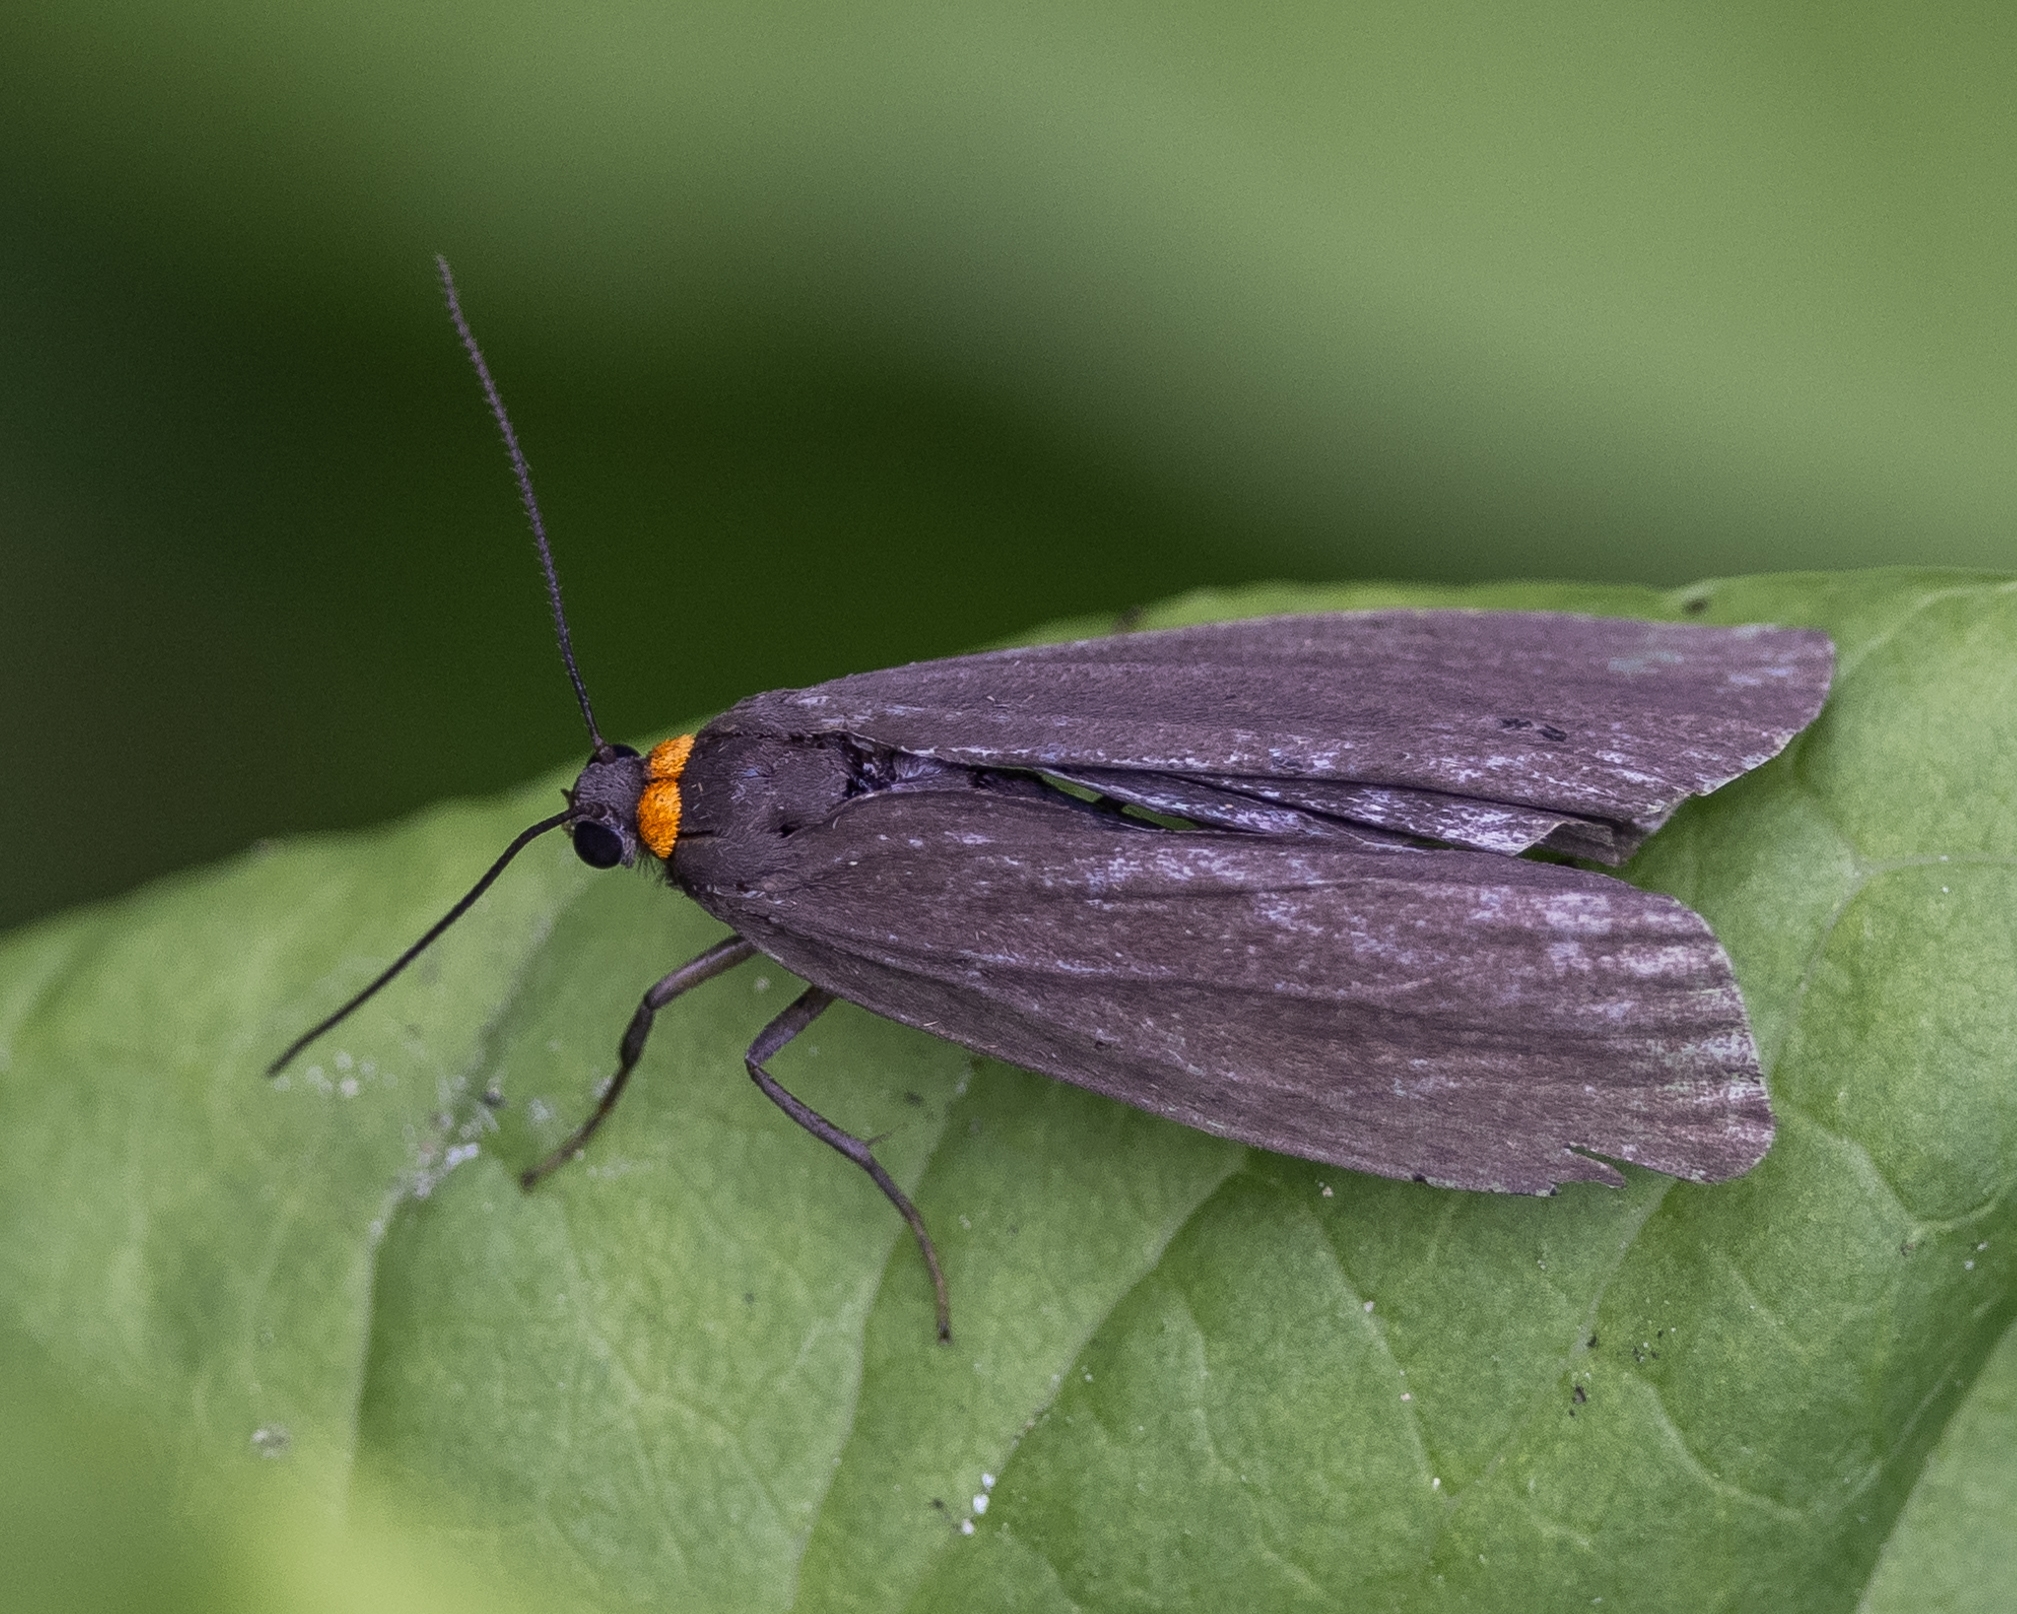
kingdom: Animalia
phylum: Arthropoda
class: Insecta
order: Lepidoptera
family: Erebidae
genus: Atolmis
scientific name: Atolmis rubricollis
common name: Red-necked footman
